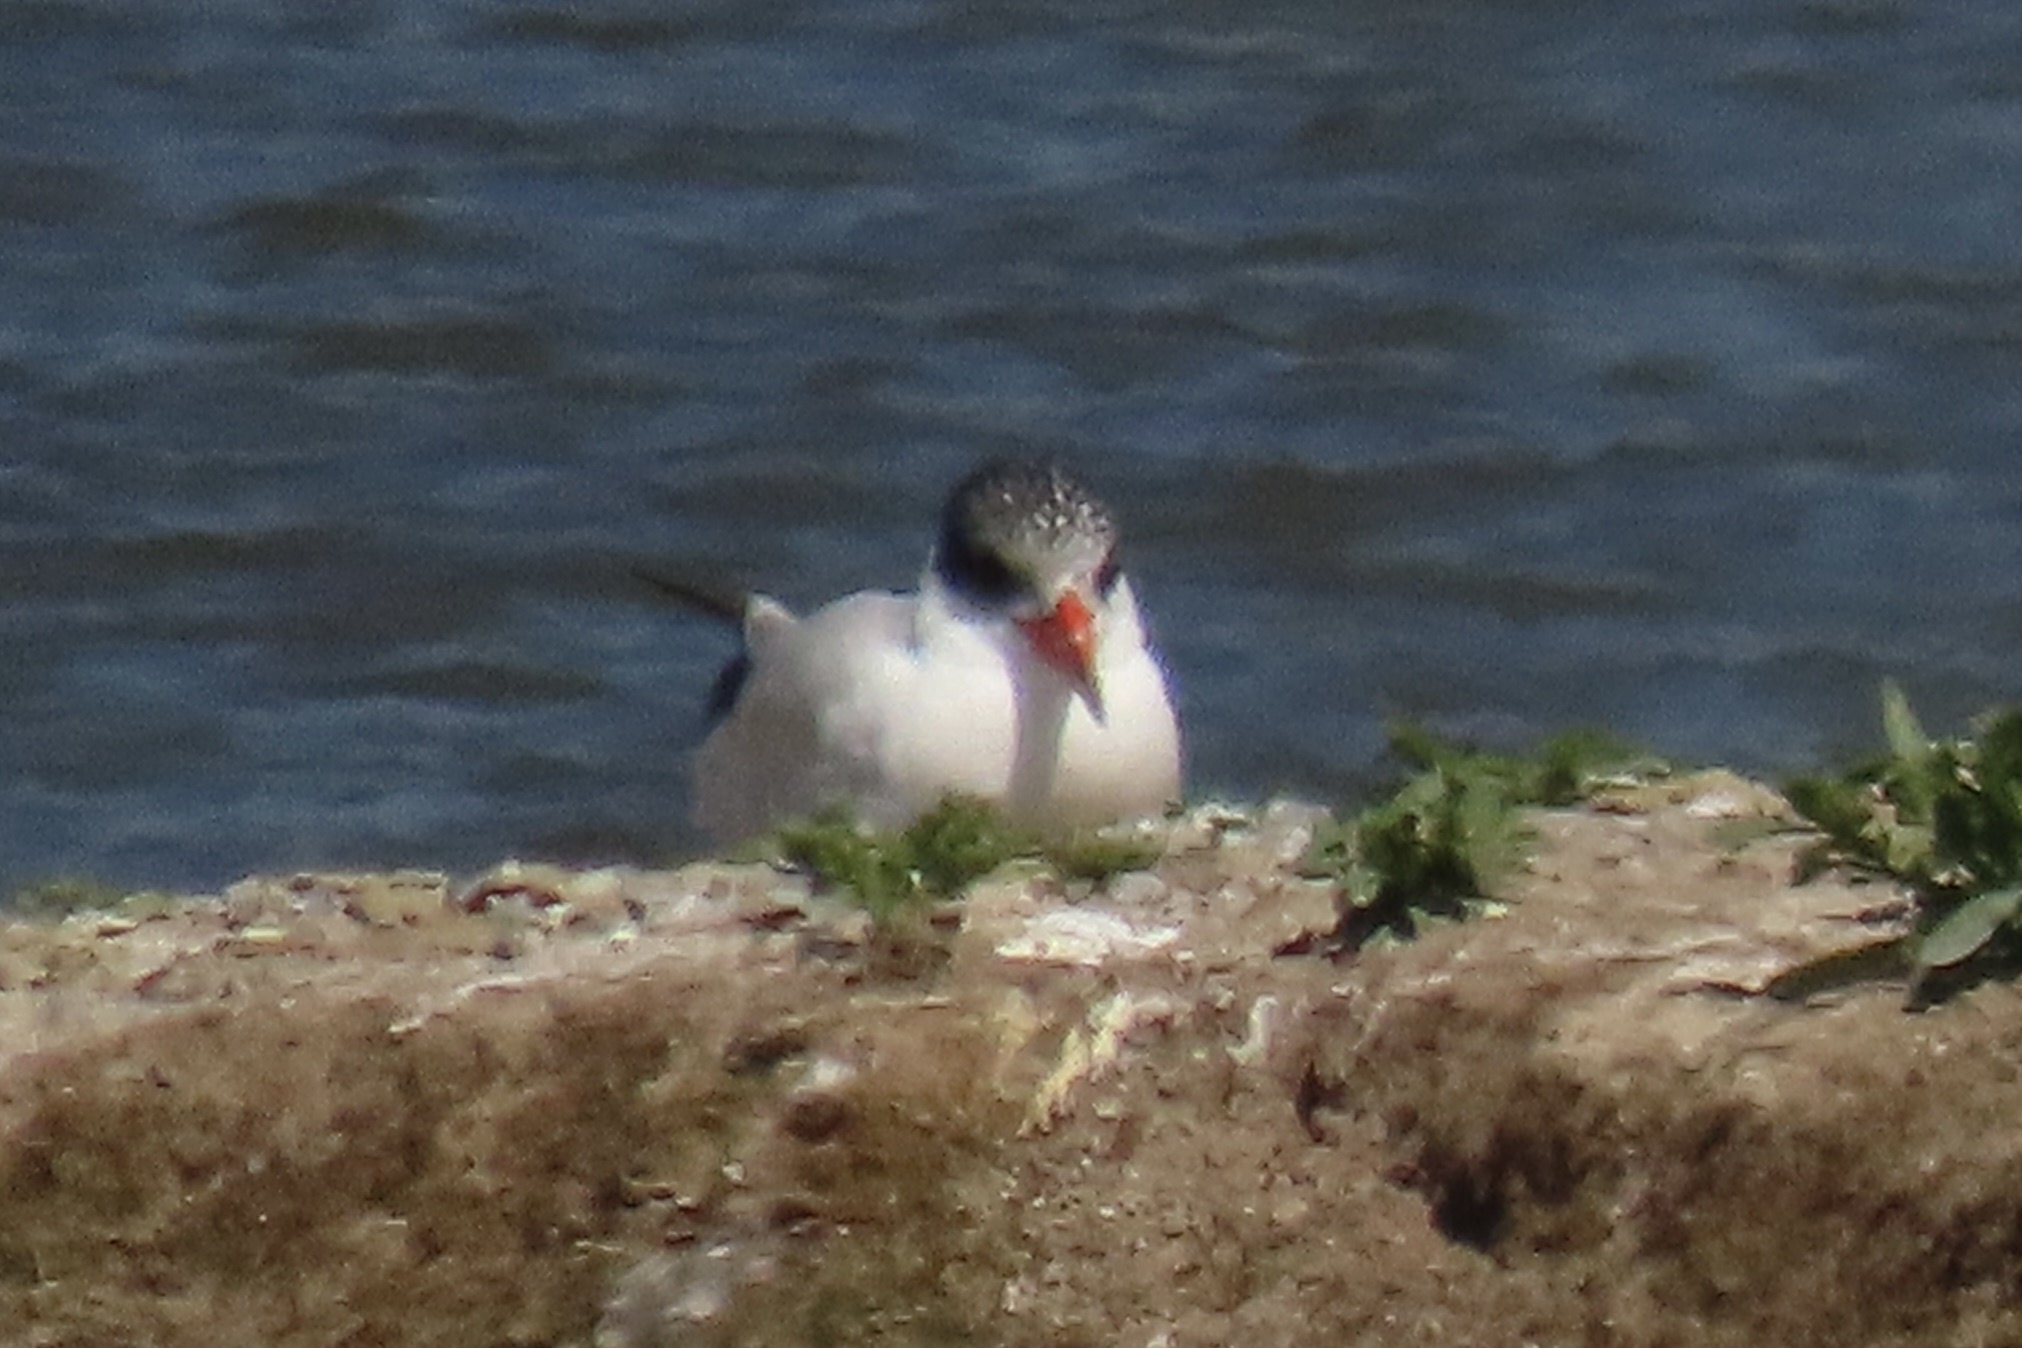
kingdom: Animalia
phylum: Chordata
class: Aves
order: Charadriiformes
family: Laridae
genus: Hydroprogne
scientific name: Hydroprogne caspia
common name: Caspian tern
